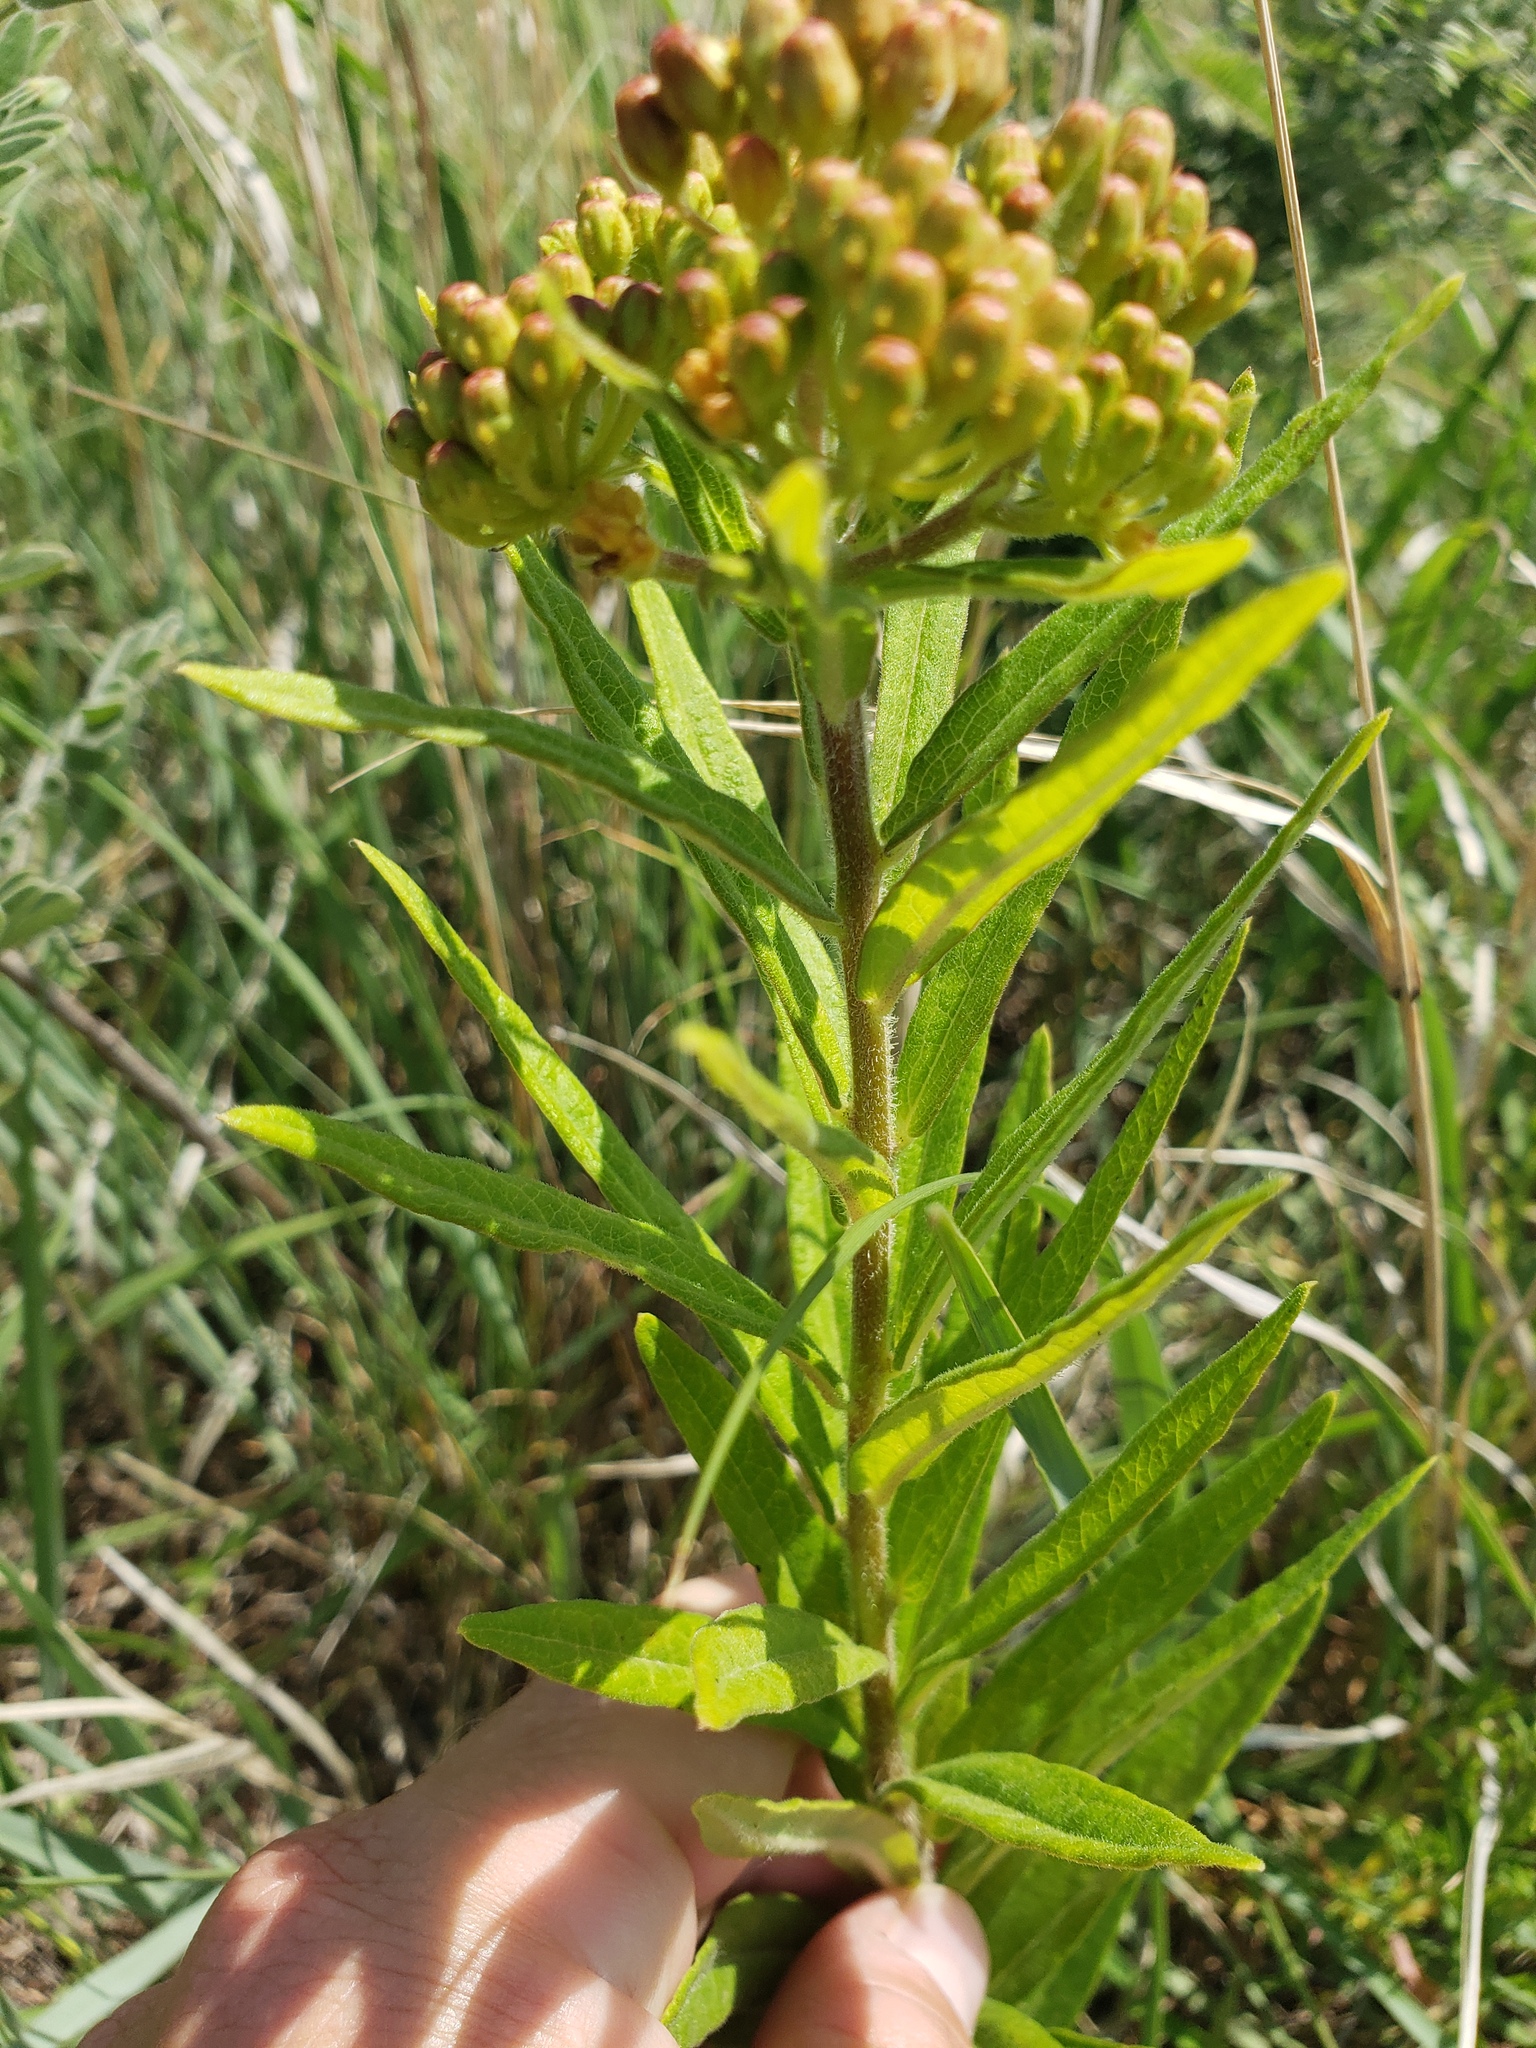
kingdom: Plantae
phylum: Tracheophyta
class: Magnoliopsida
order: Gentianales
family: Apocynaceae
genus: Asclepias
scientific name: Asclepias tuberosa
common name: Butterfly milkweed
